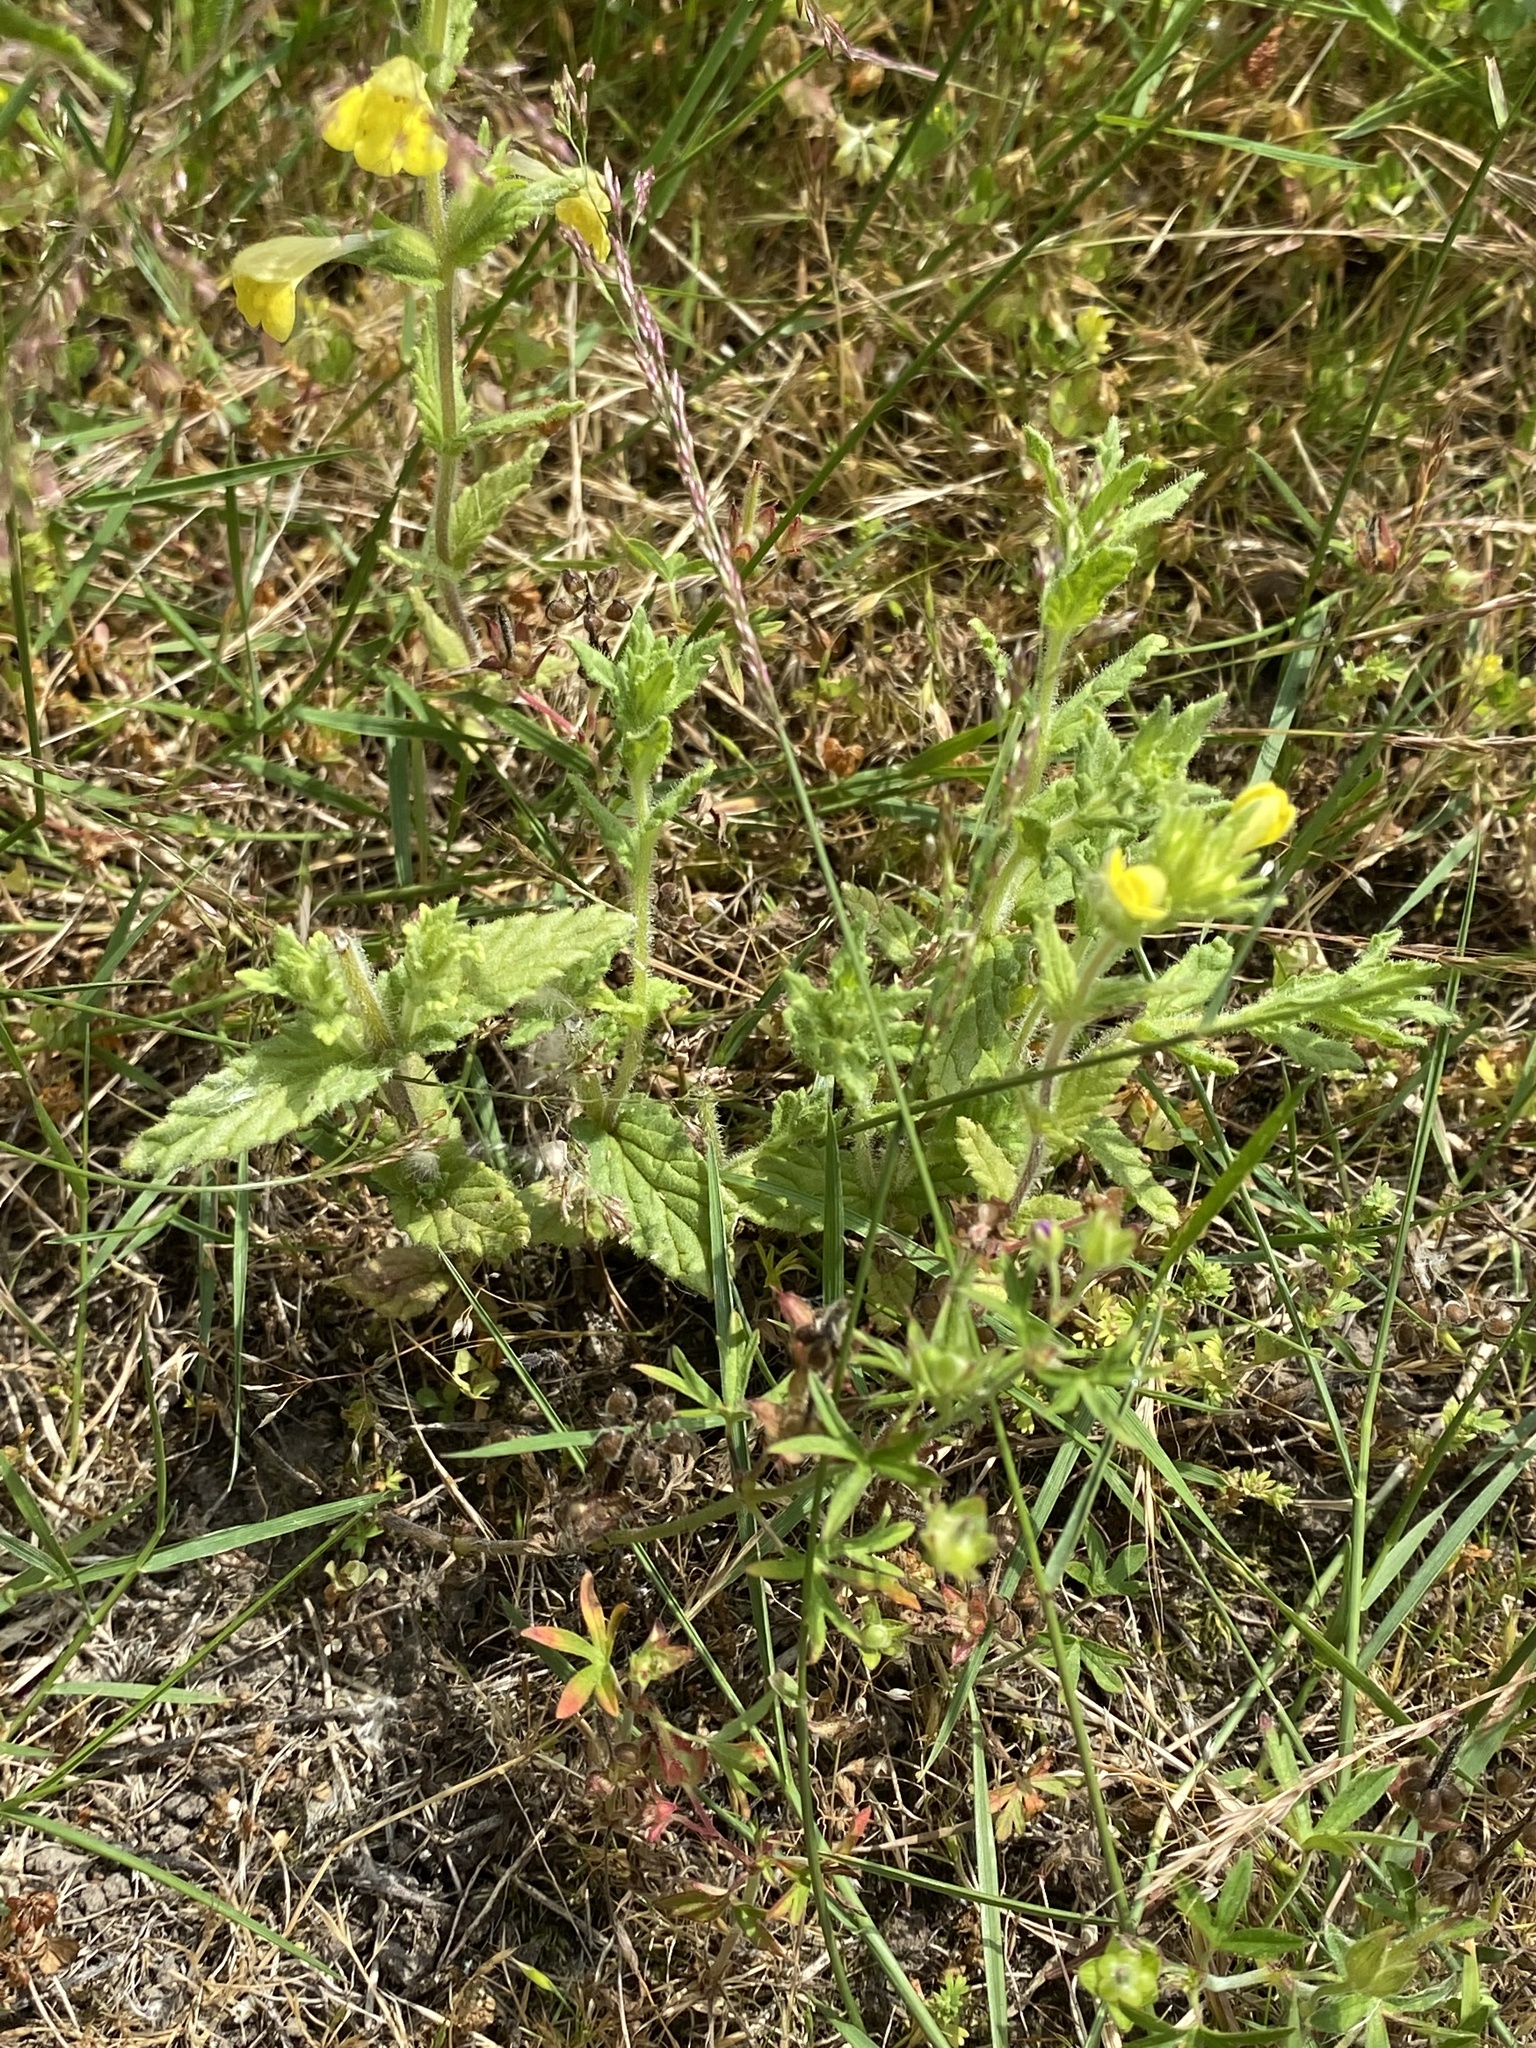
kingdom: Plantae
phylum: Tracheophyta
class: Magnoliopsida
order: Lamiales
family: Orobanchaceae
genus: Bellardia
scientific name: Bellardia viscosa
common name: Sticky parentucellia
